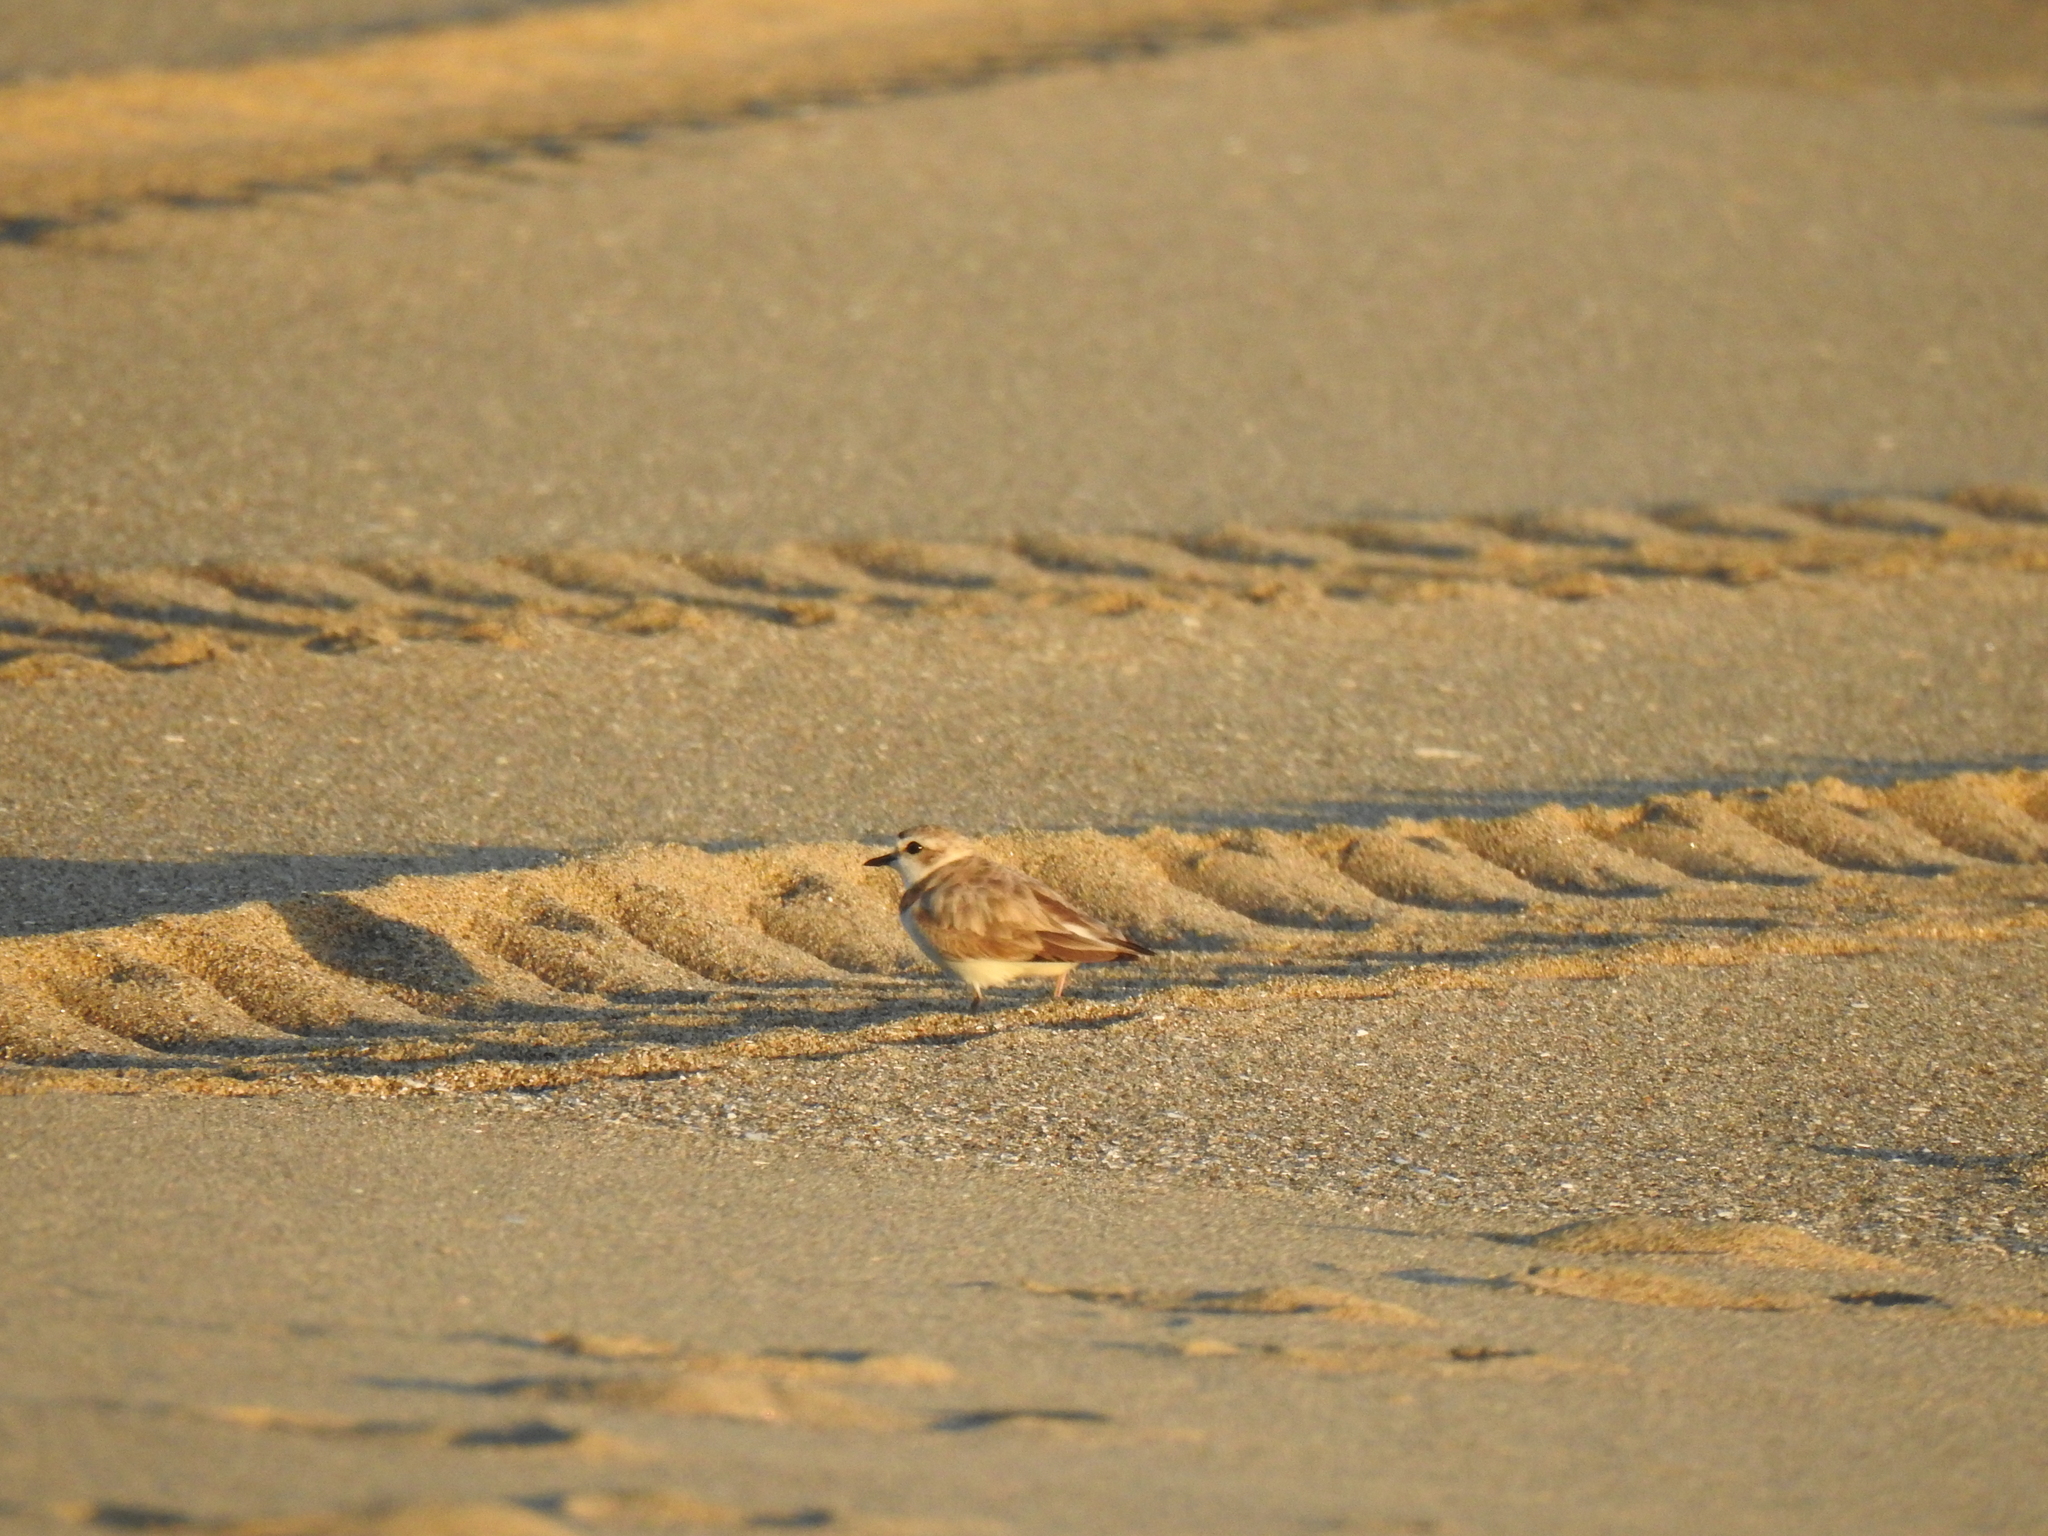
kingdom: Animalia
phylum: Chordata
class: Aves
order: Charadriiformes
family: Charadriidae
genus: Anarhynchus
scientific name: Anarhynchus
